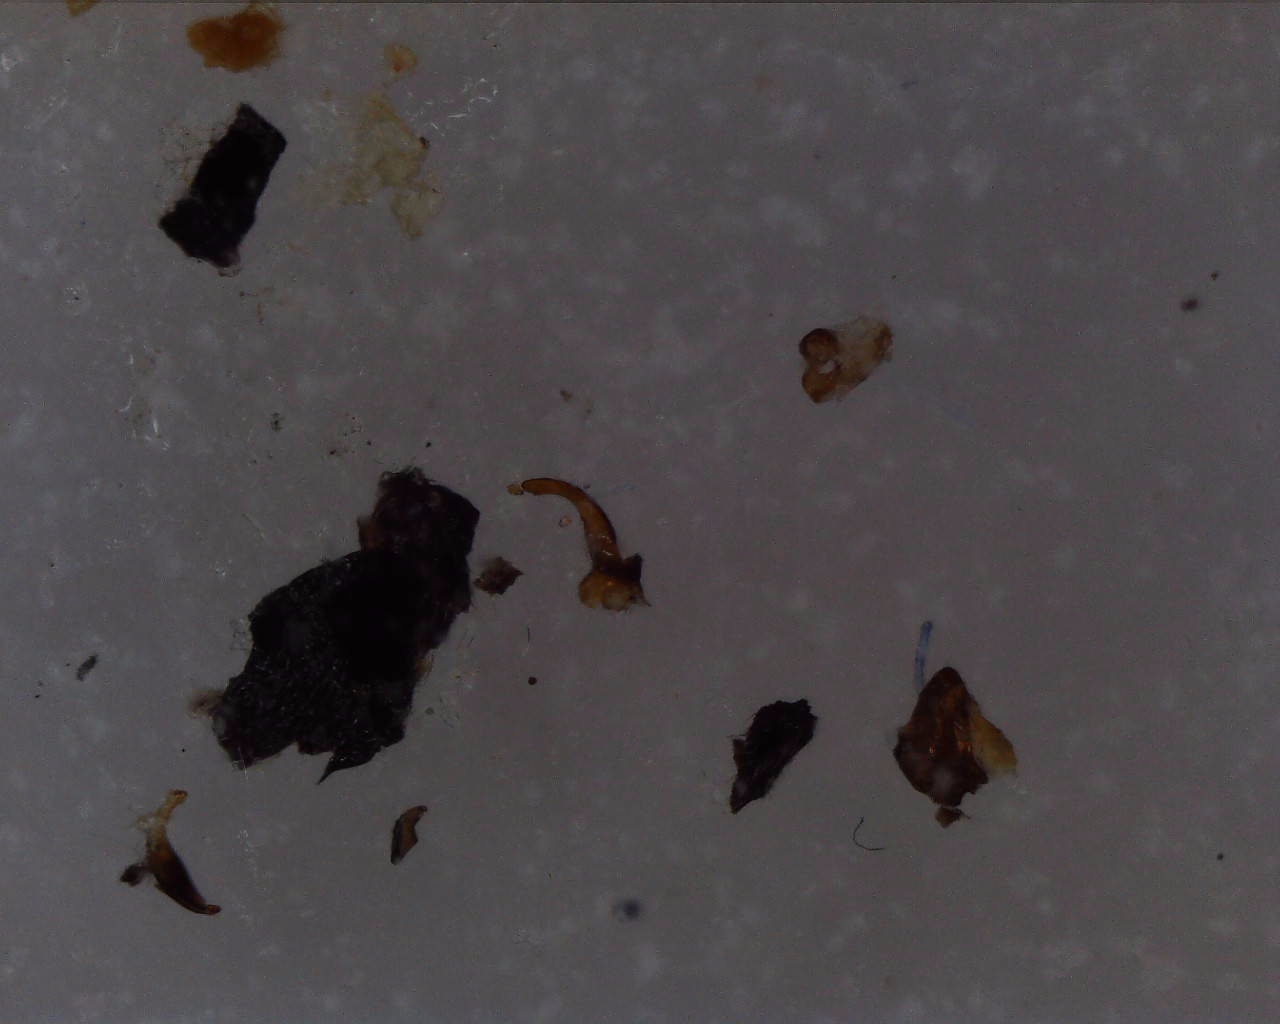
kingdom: Animalia
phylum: Arthropoda
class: Insecta
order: Hemiptera
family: Rhyparochromidae
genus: Trapezonotus
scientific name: Trapezonotus desertus
